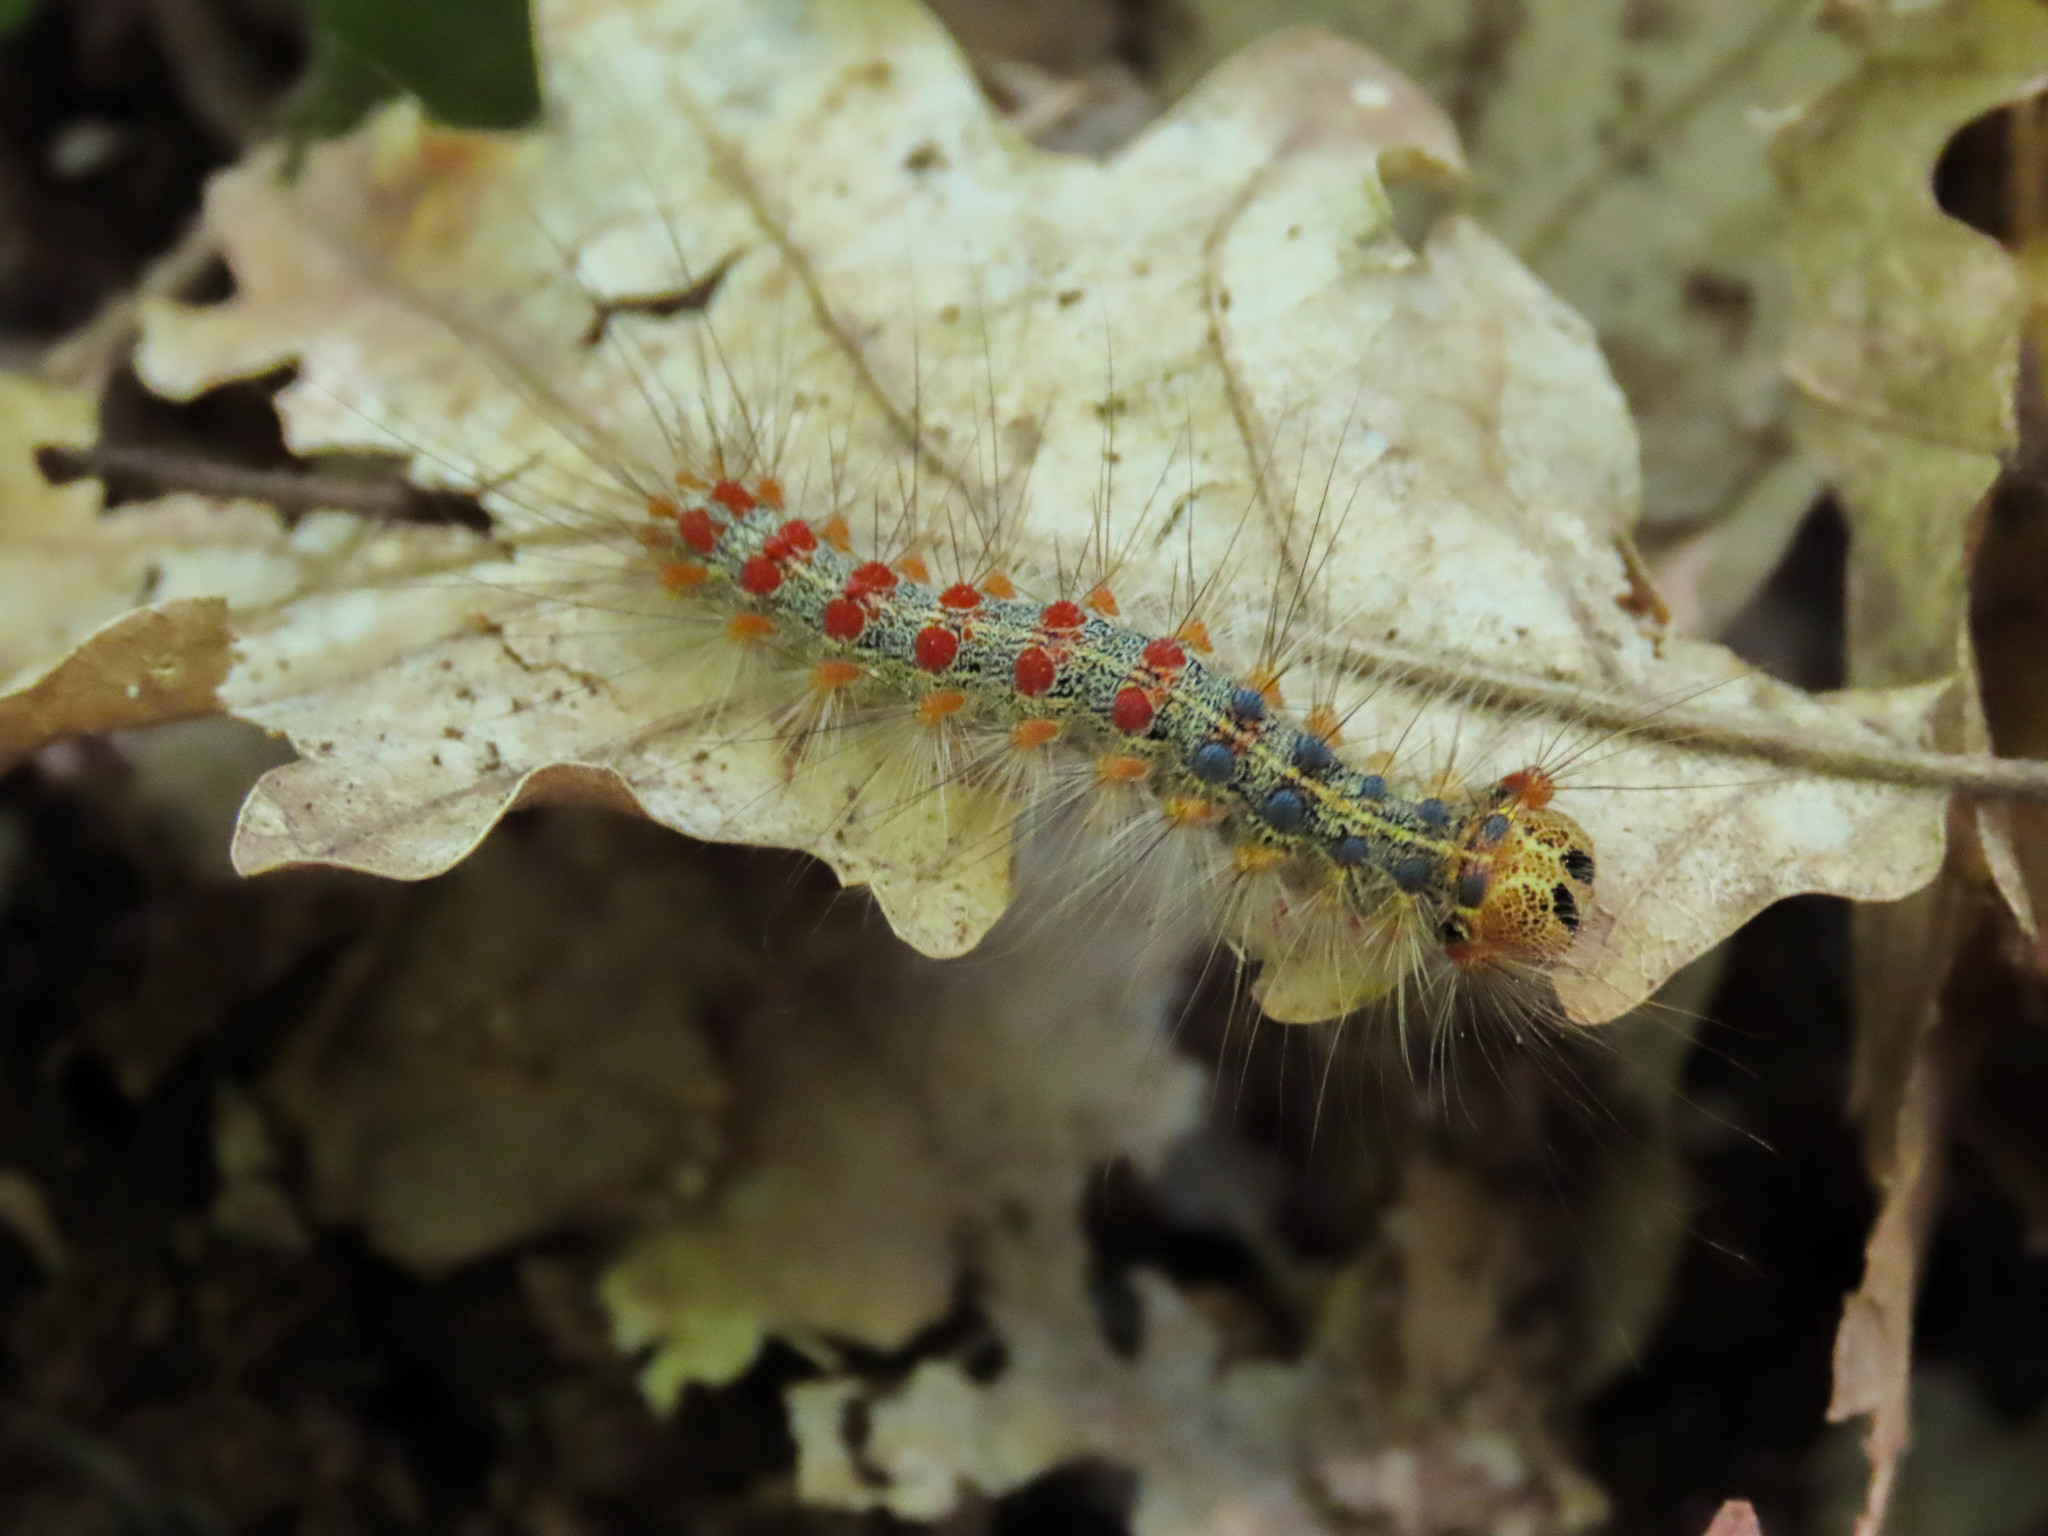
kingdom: Animalia
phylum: Arthropoda
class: Insecta
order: Lepidoptera
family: Erebidae
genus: Lymantria
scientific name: Lymantria dispar
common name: Gypsy moth
